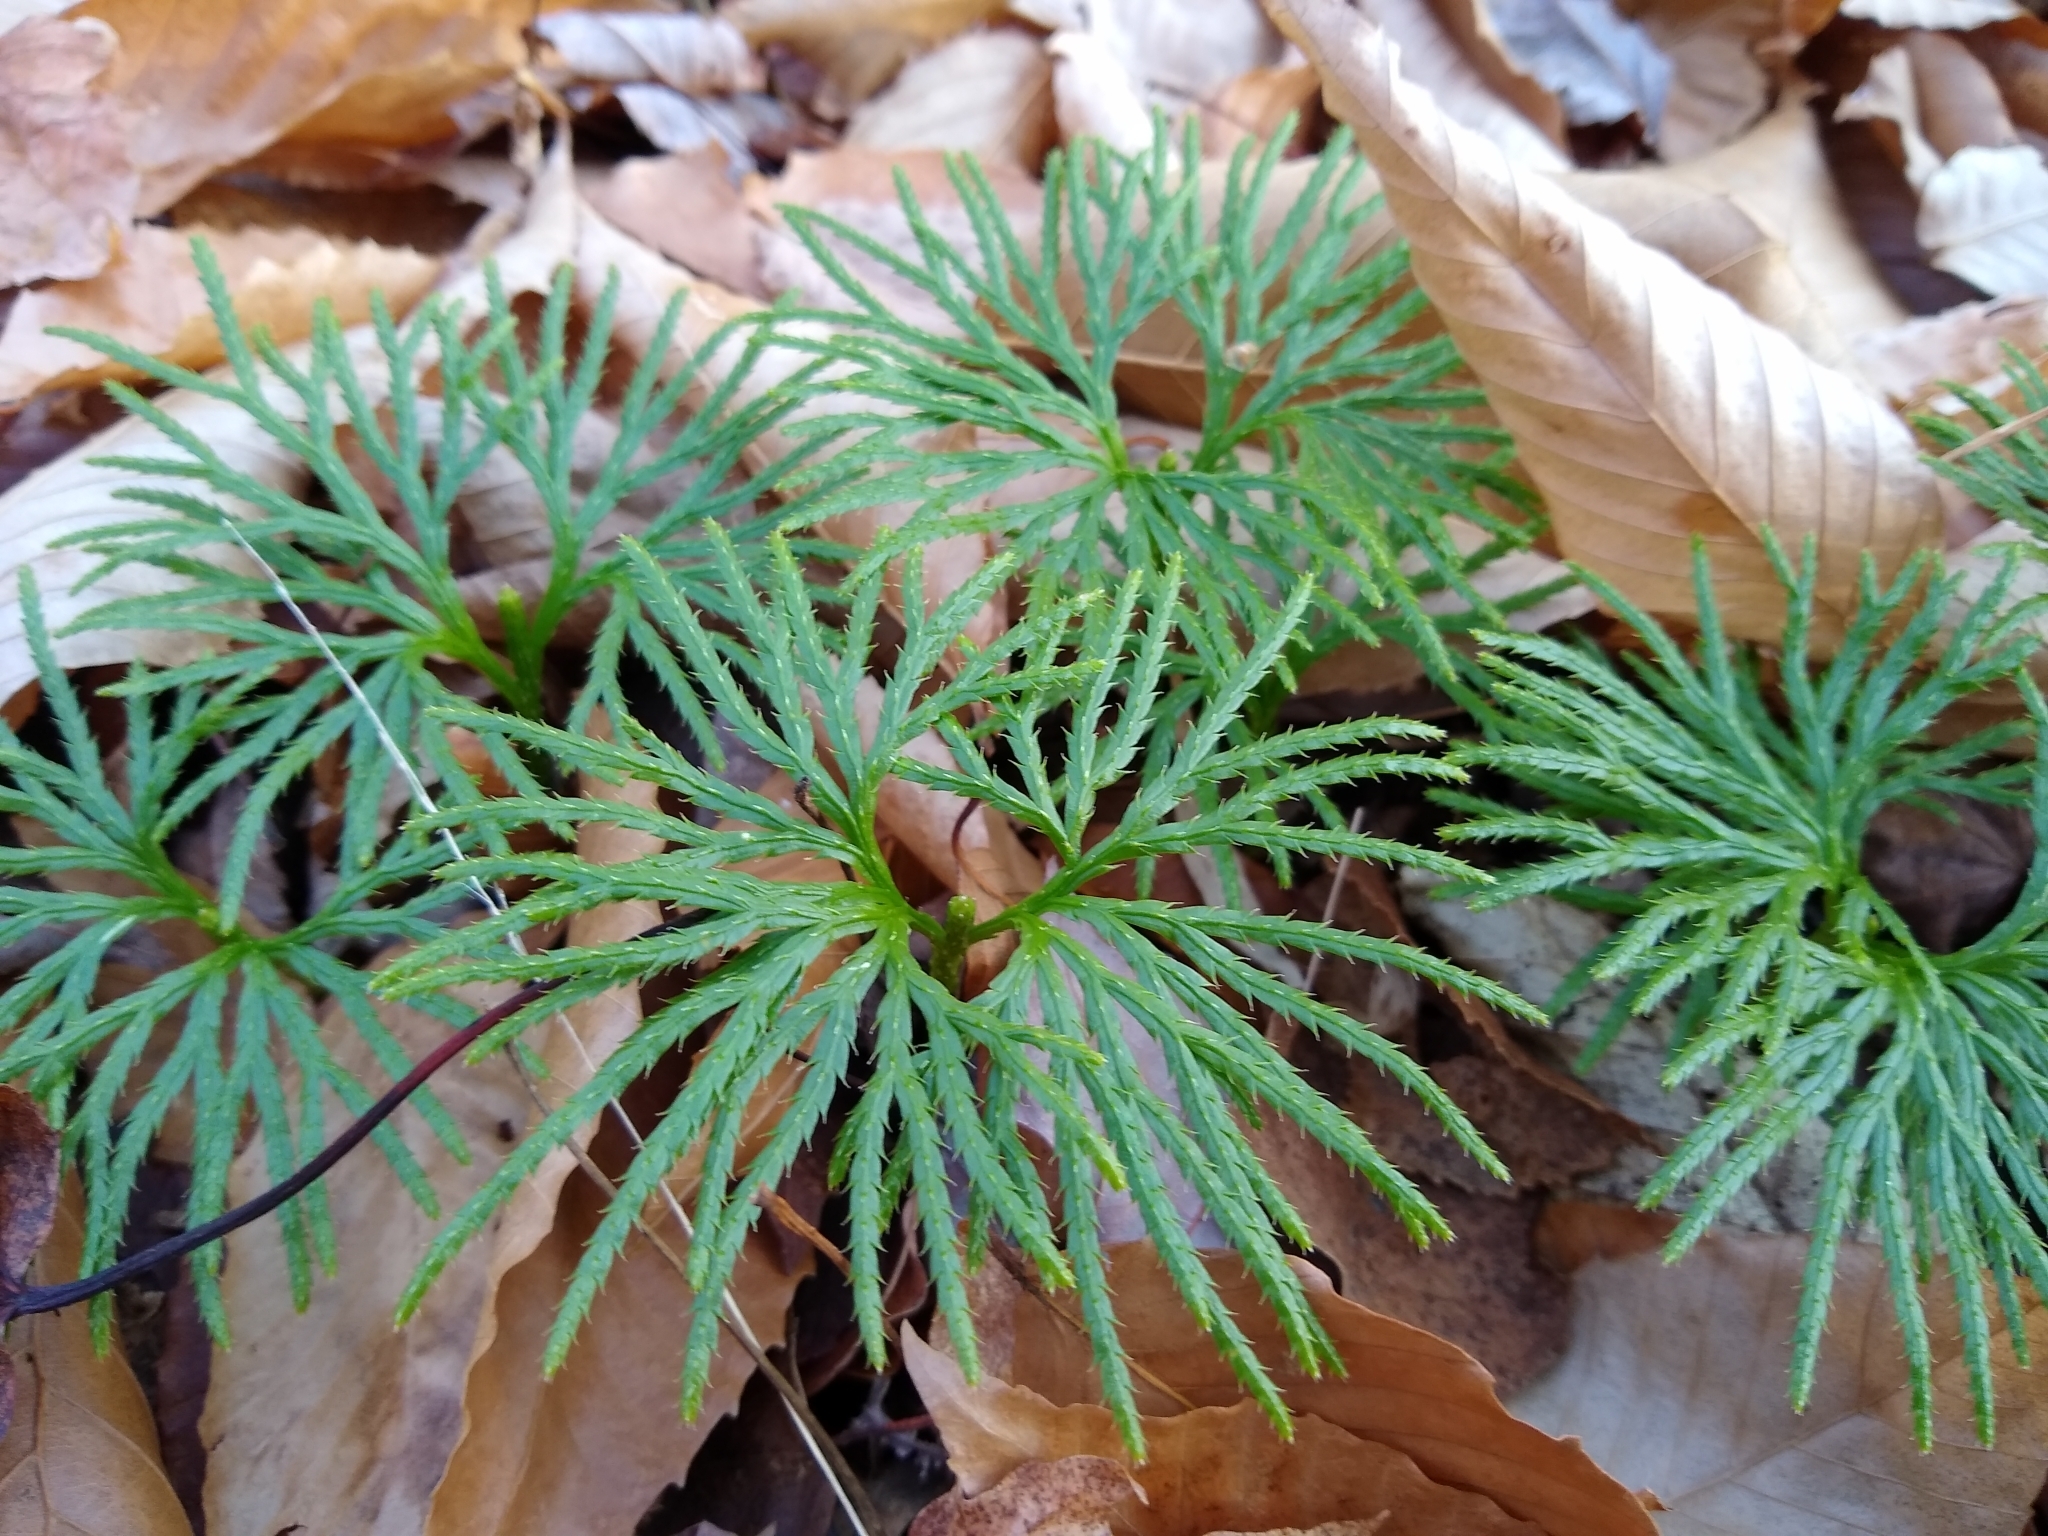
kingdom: Plantae
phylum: Tracheophyta
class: Lycopodiopsida
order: Lycopodiales
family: Lycopodiaceae
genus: Diphasiastrum
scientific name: Diphasiastrum digitatum
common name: Southern running-pine
